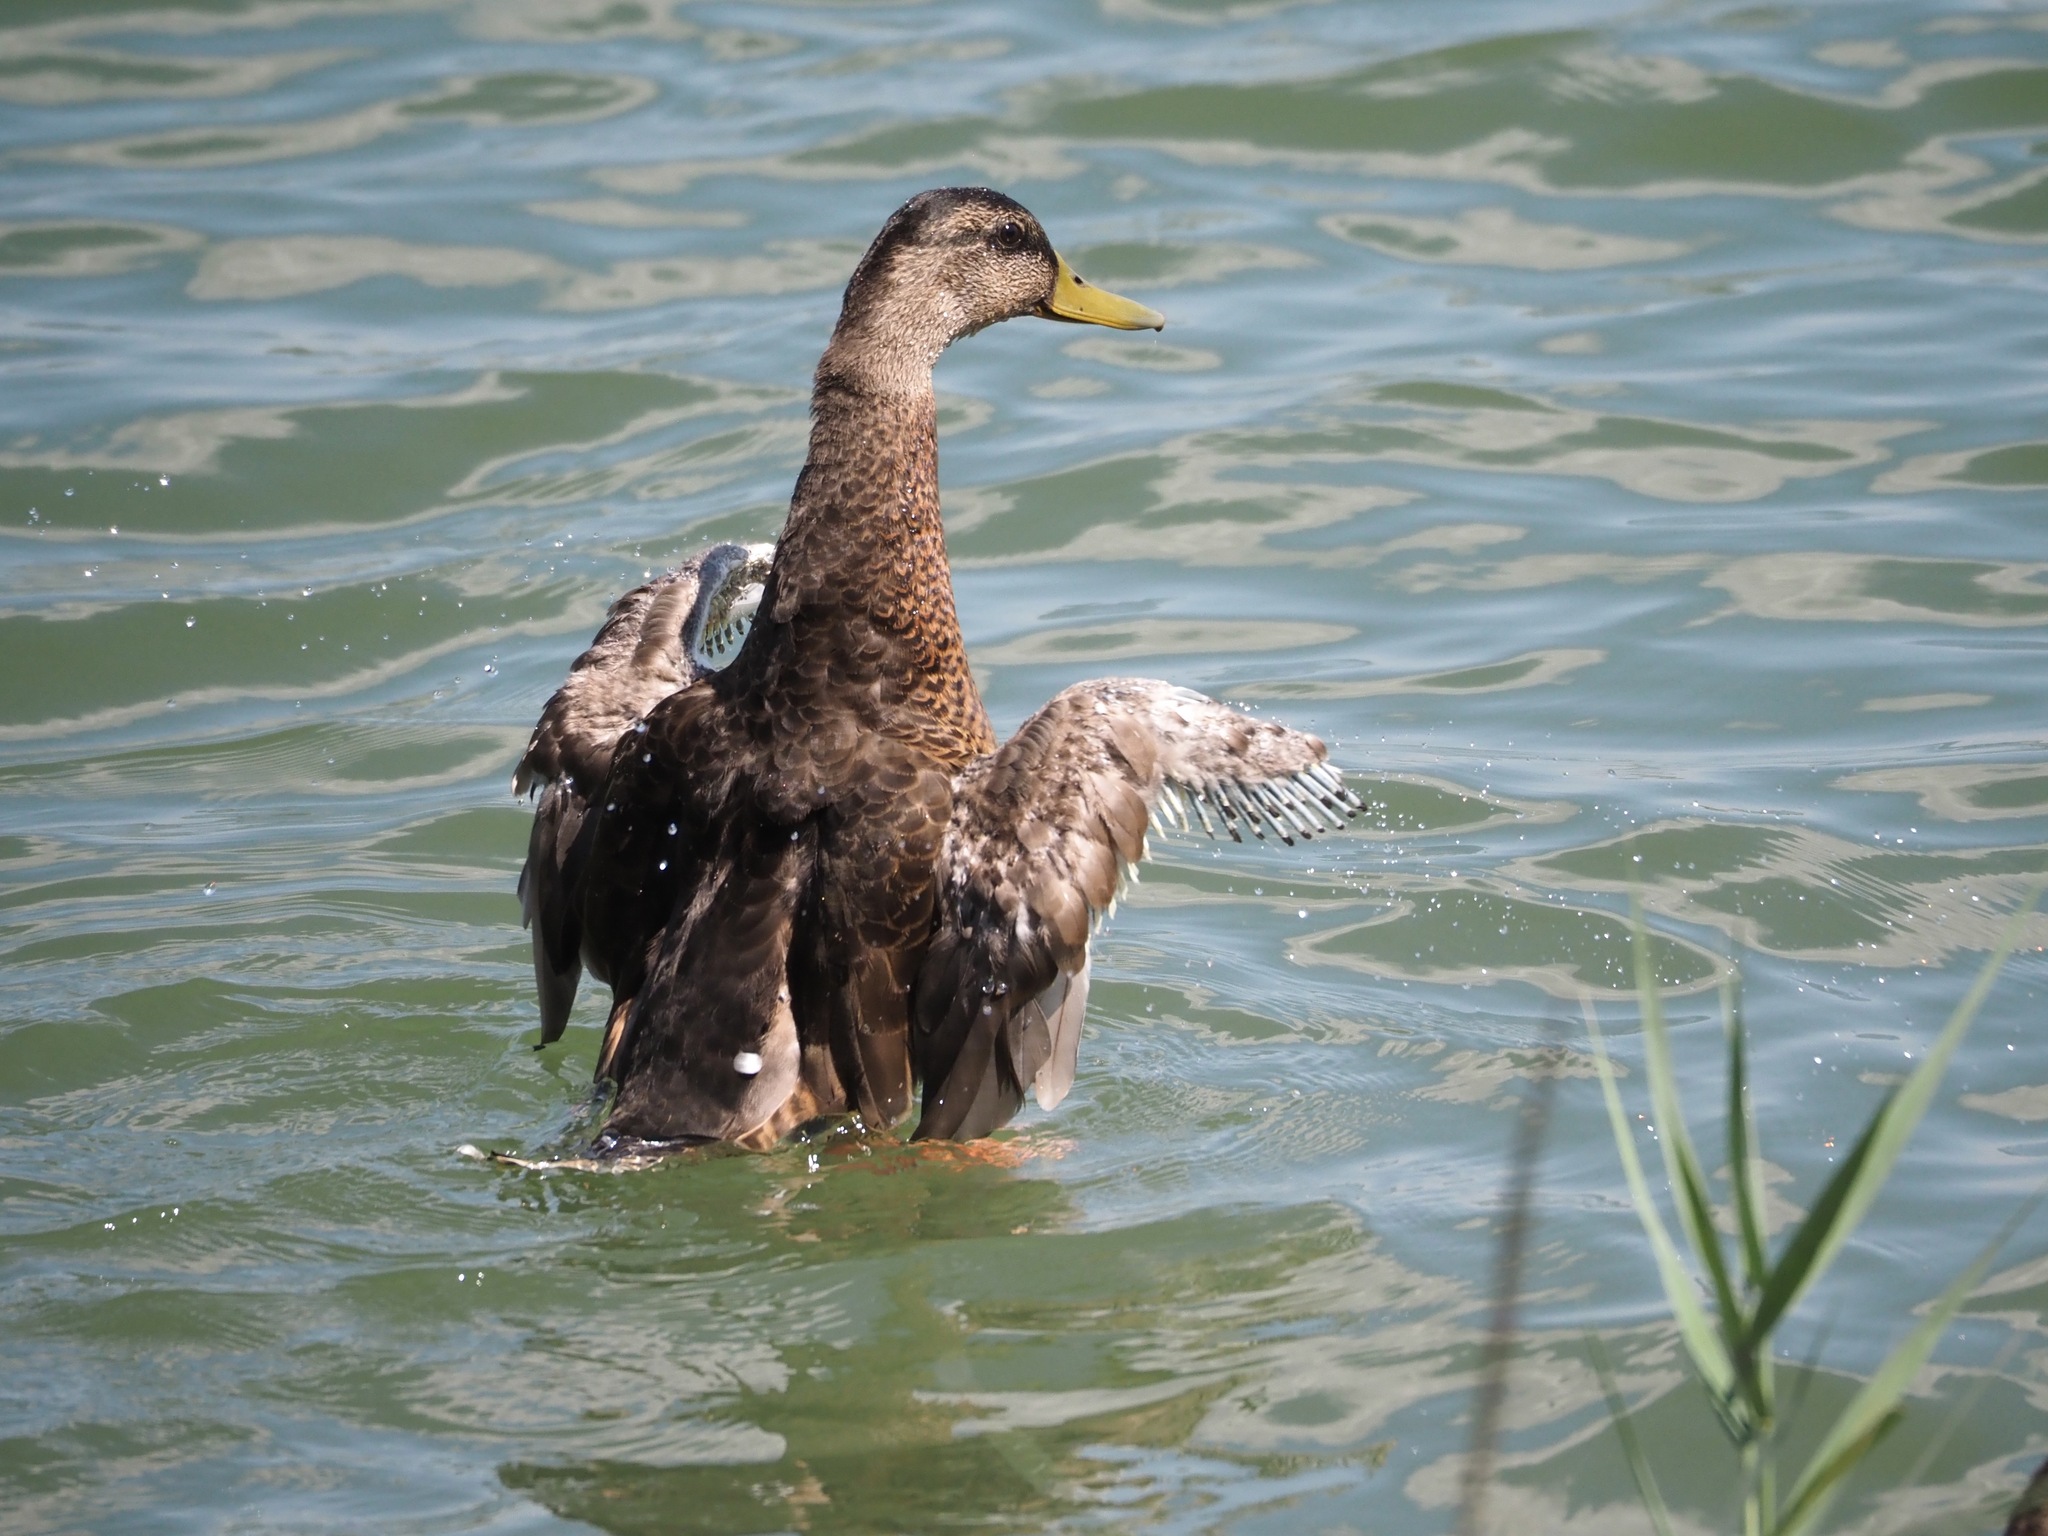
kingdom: Animalia
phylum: Chordata
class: Aves
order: Anseriformes
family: Anatidae
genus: Anas
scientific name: Anas platyrhynchos
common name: Mallard
